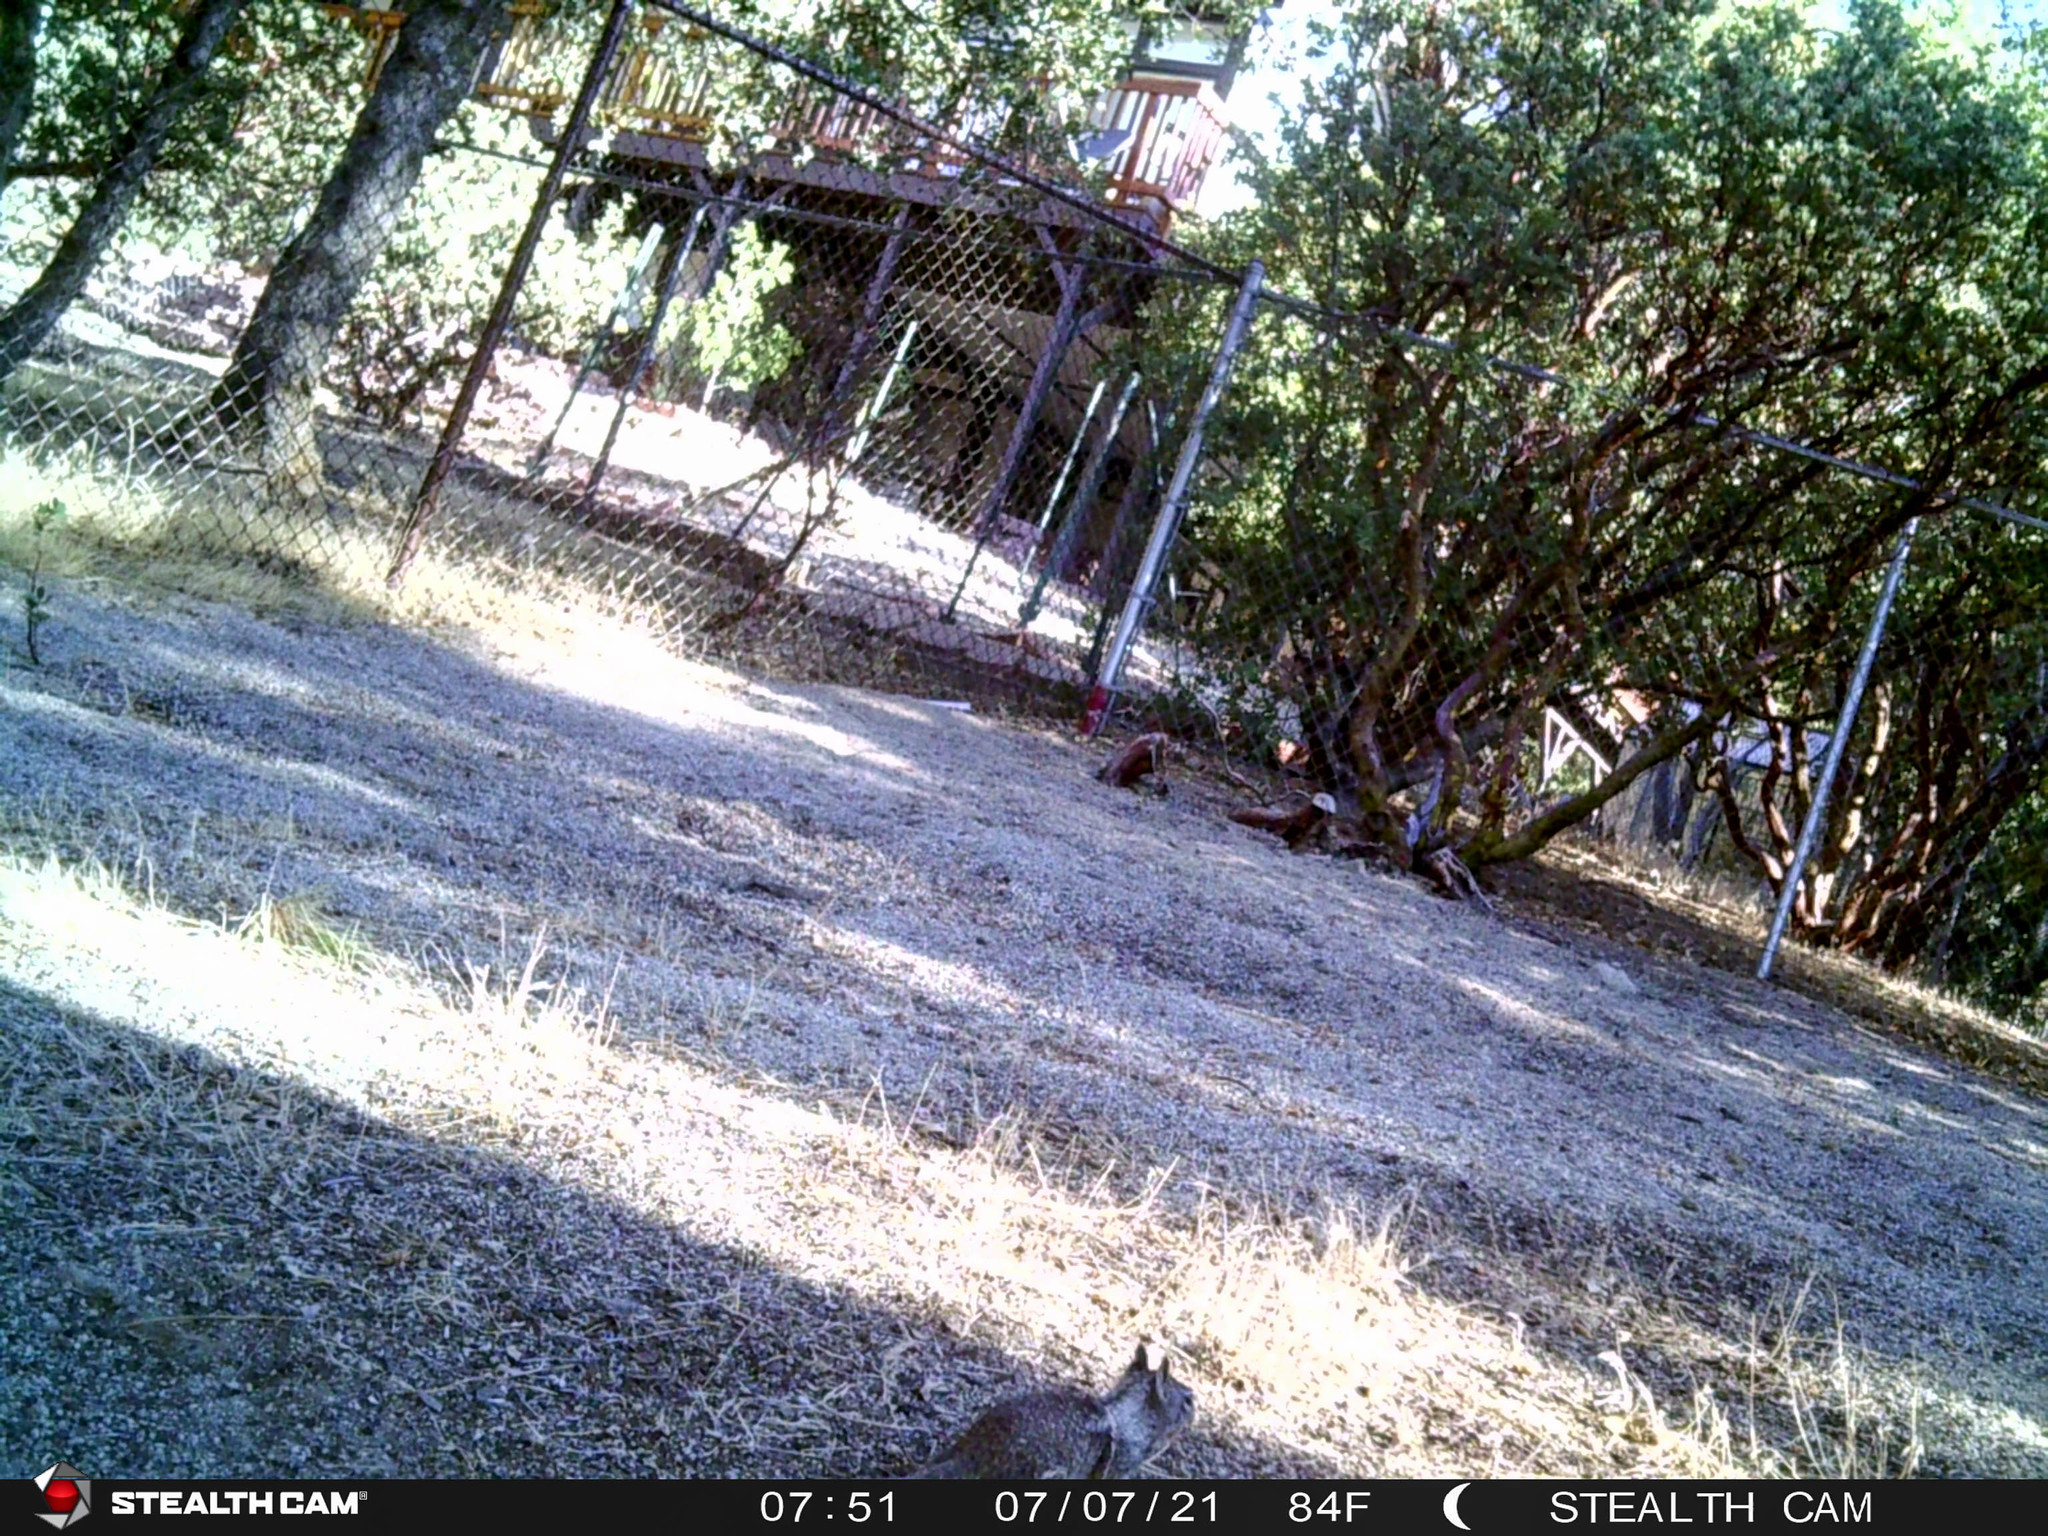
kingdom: Animalia
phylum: Chordata
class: Mammalia
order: Rodentia
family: Sciuridae
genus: Otospermophilus
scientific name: Otospermophilus beecheyi
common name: California ground squirrel
